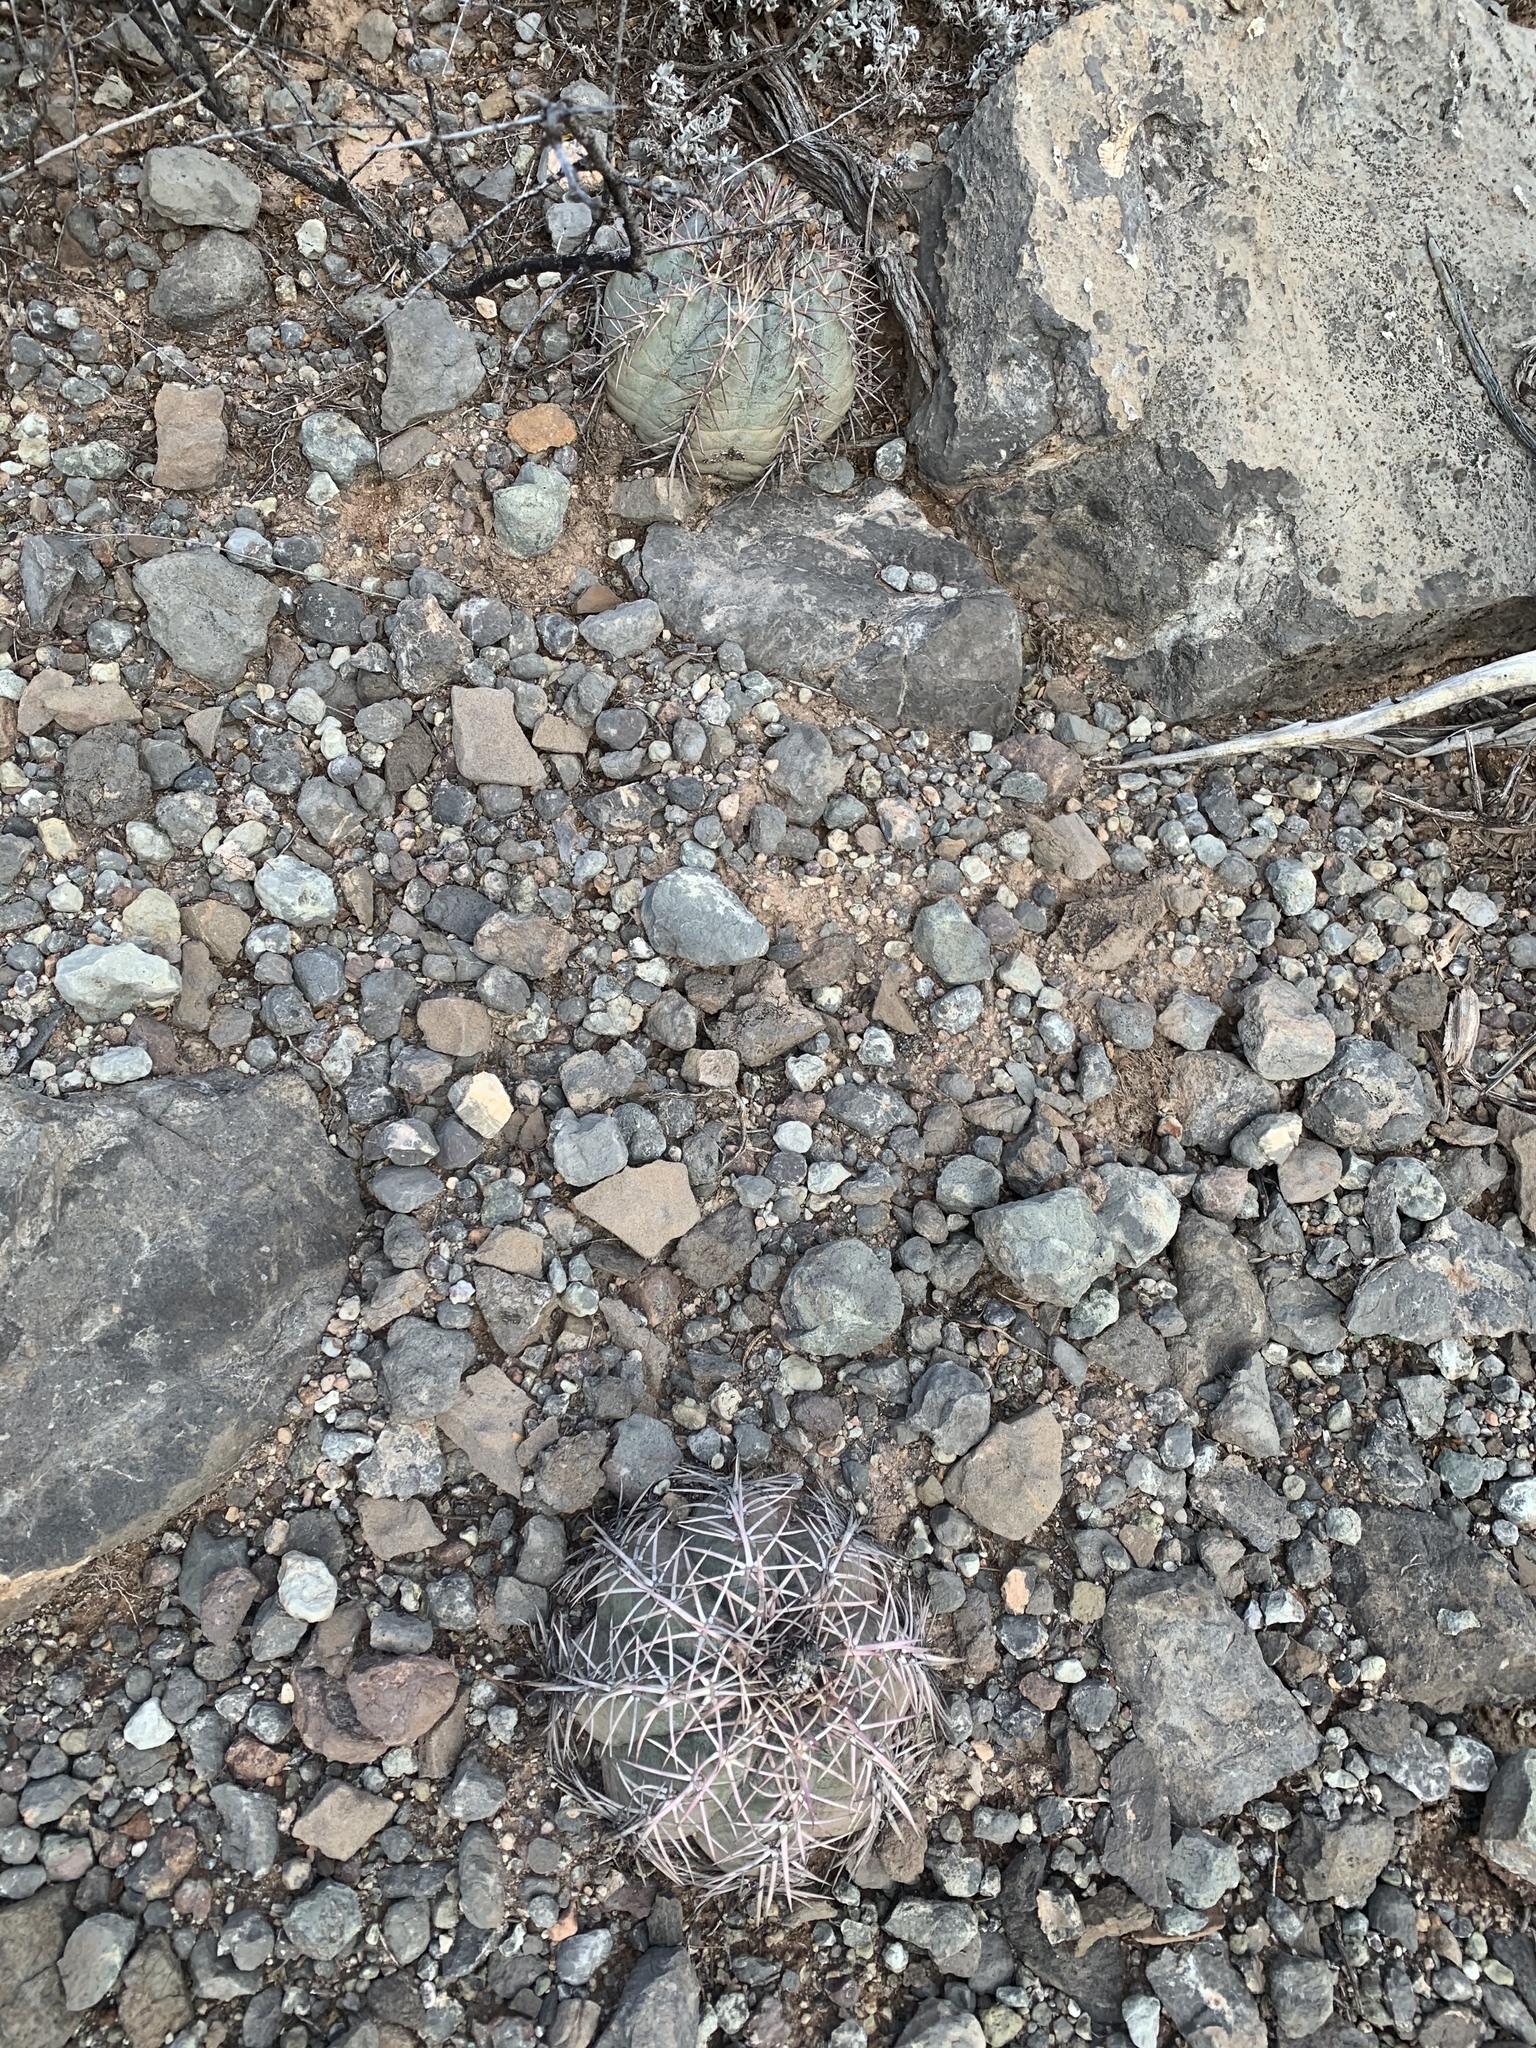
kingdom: Plantae
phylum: Tracheophyta
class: Magnoliopsida
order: Caryophyllales
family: Cactaceae
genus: Echinocactus
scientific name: Echinocactus horizonthalonius
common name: Devilshead
